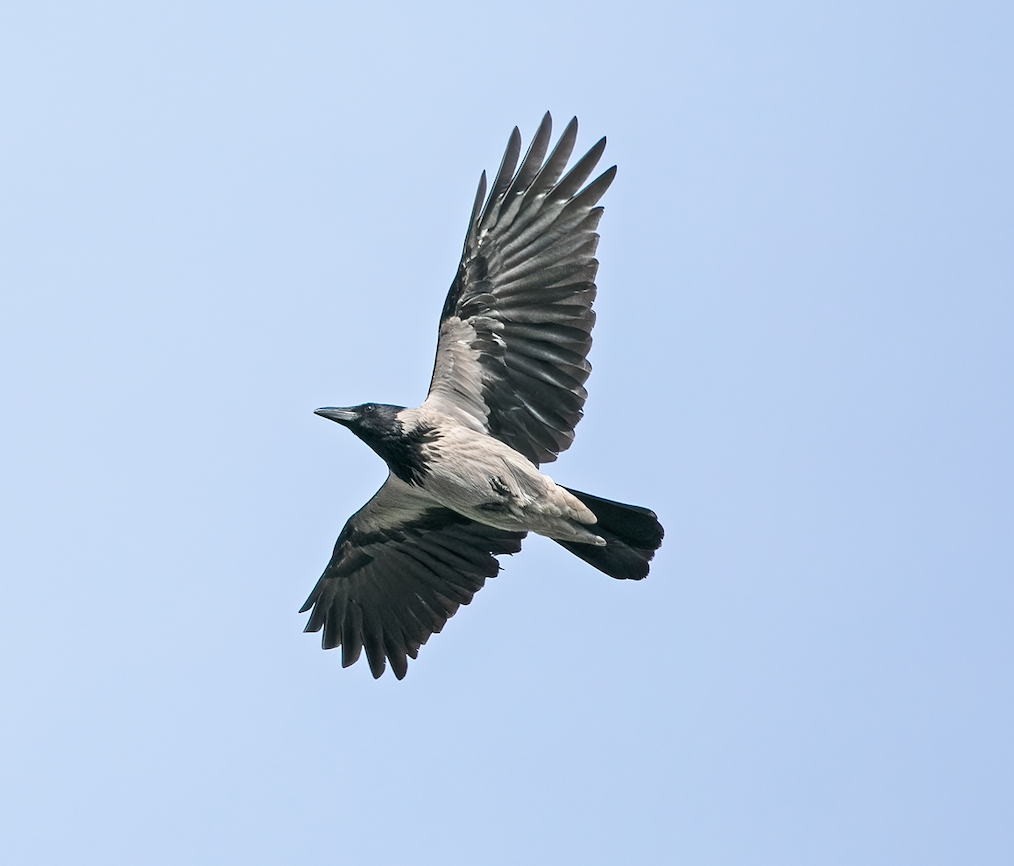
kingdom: Animalia
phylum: Chordata
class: Aves
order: Passeriformes
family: Corvidae
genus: Corvus
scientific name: Corvus cornix
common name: Hooded crow
